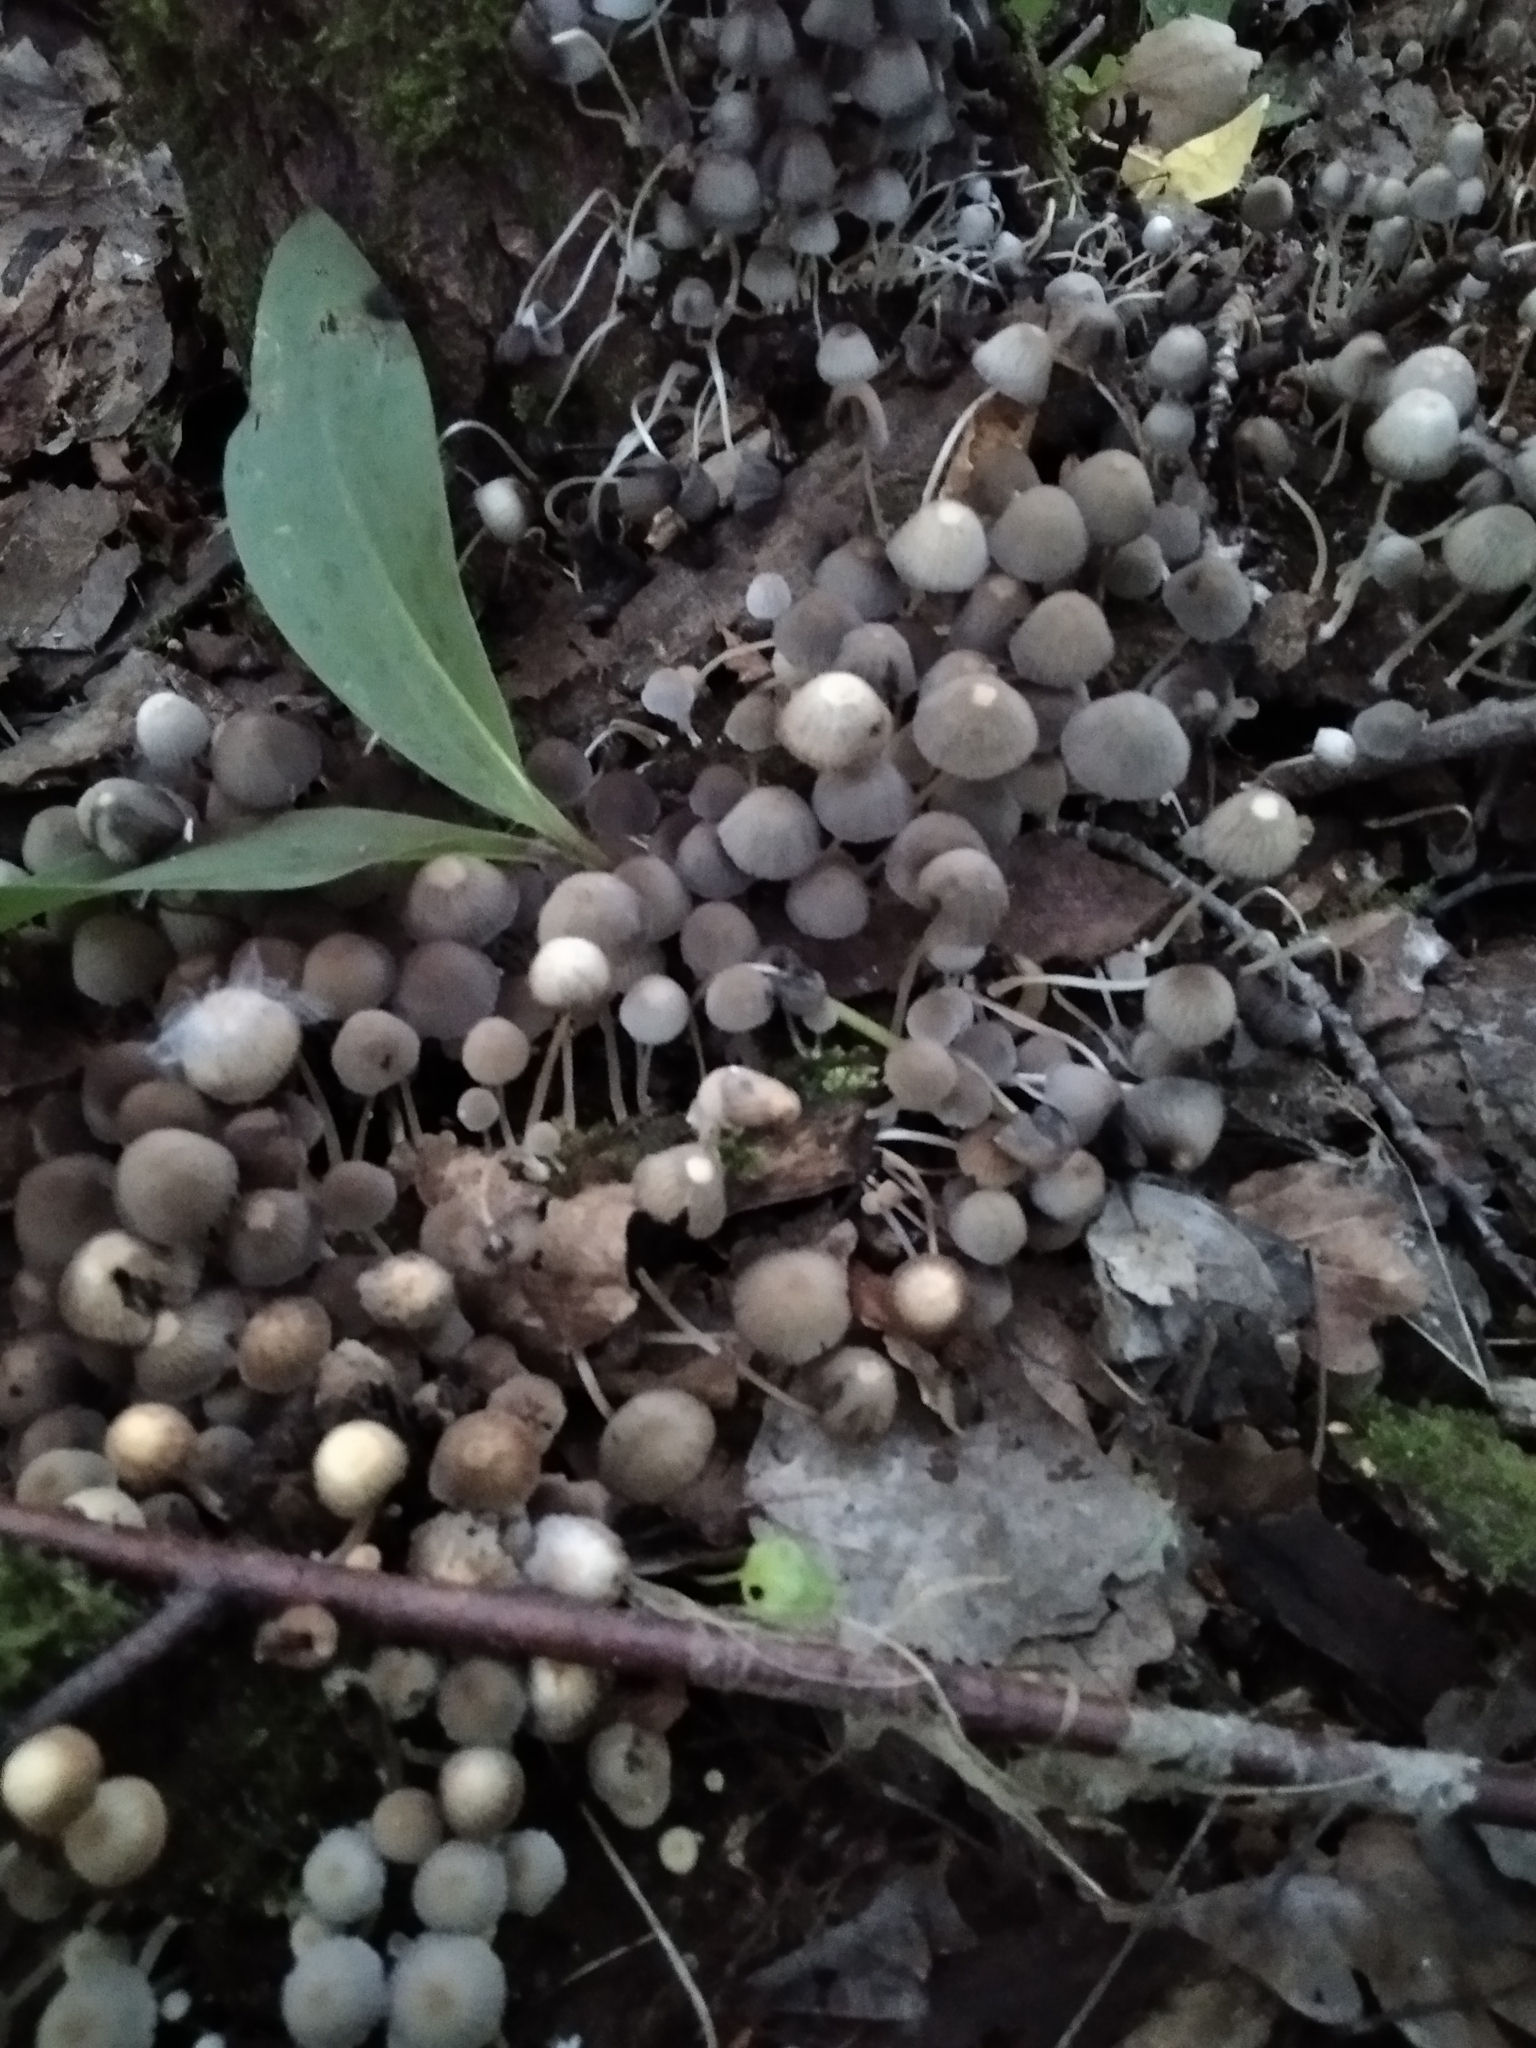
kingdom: Fungi
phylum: Basidiomycota
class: Agaricomycetes
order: Agaricales
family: Psathyrellaceae
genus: Coprinellus
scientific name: Coprinellus disseminatus
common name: Fairies' bonnets
